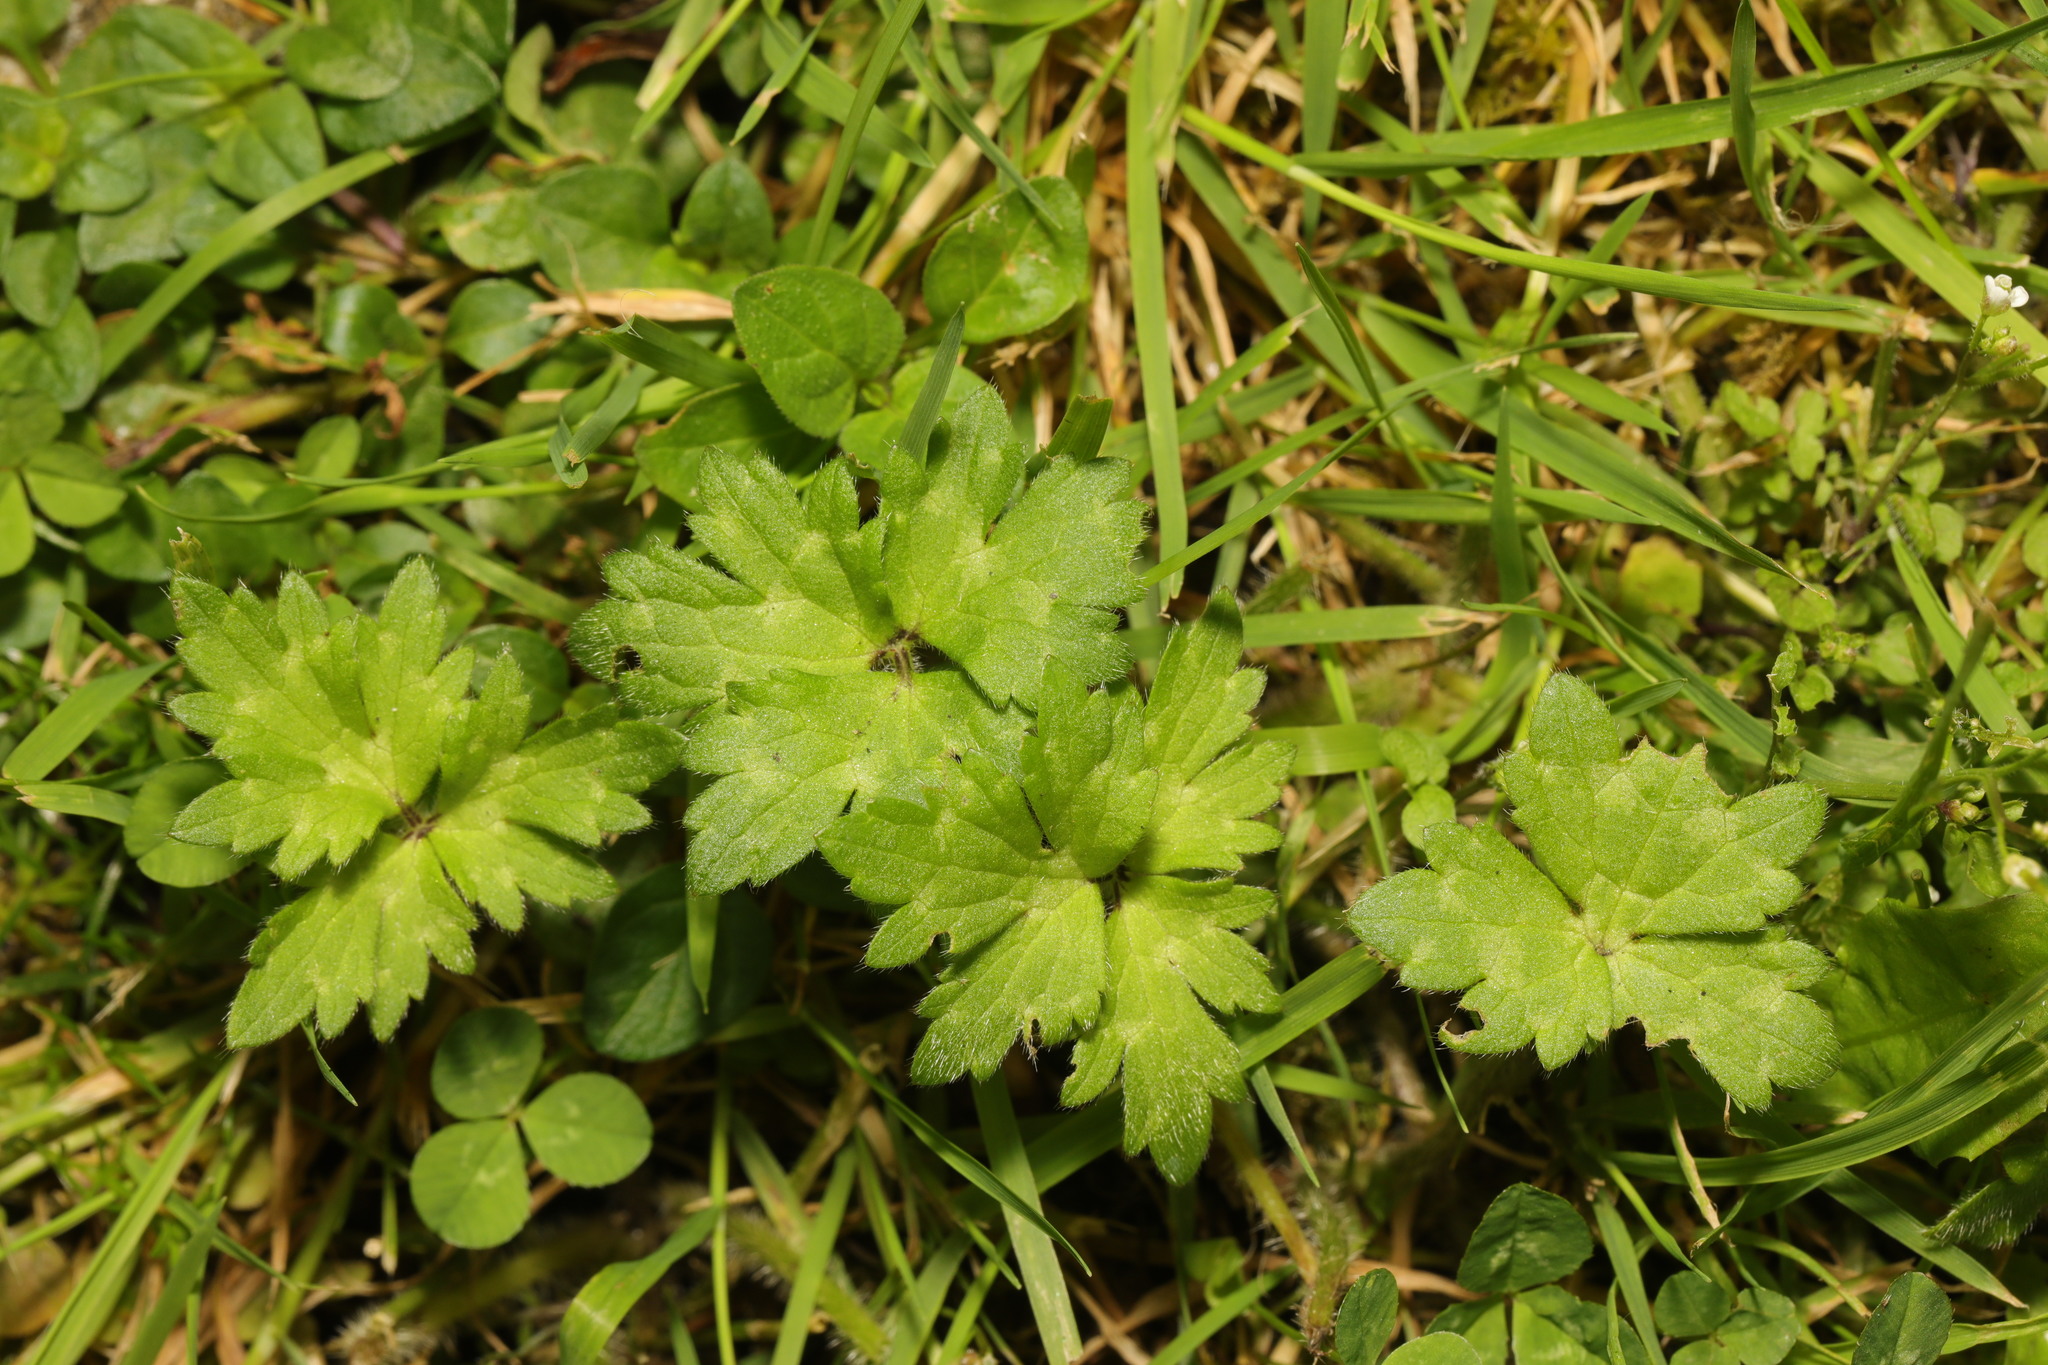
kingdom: Plantae
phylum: Tracheophyta
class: Magnoliopsida
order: Ranunculales
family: Ranunculaceae
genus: Ranunculus
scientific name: Ranunculus repens
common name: Creeping buttercup
